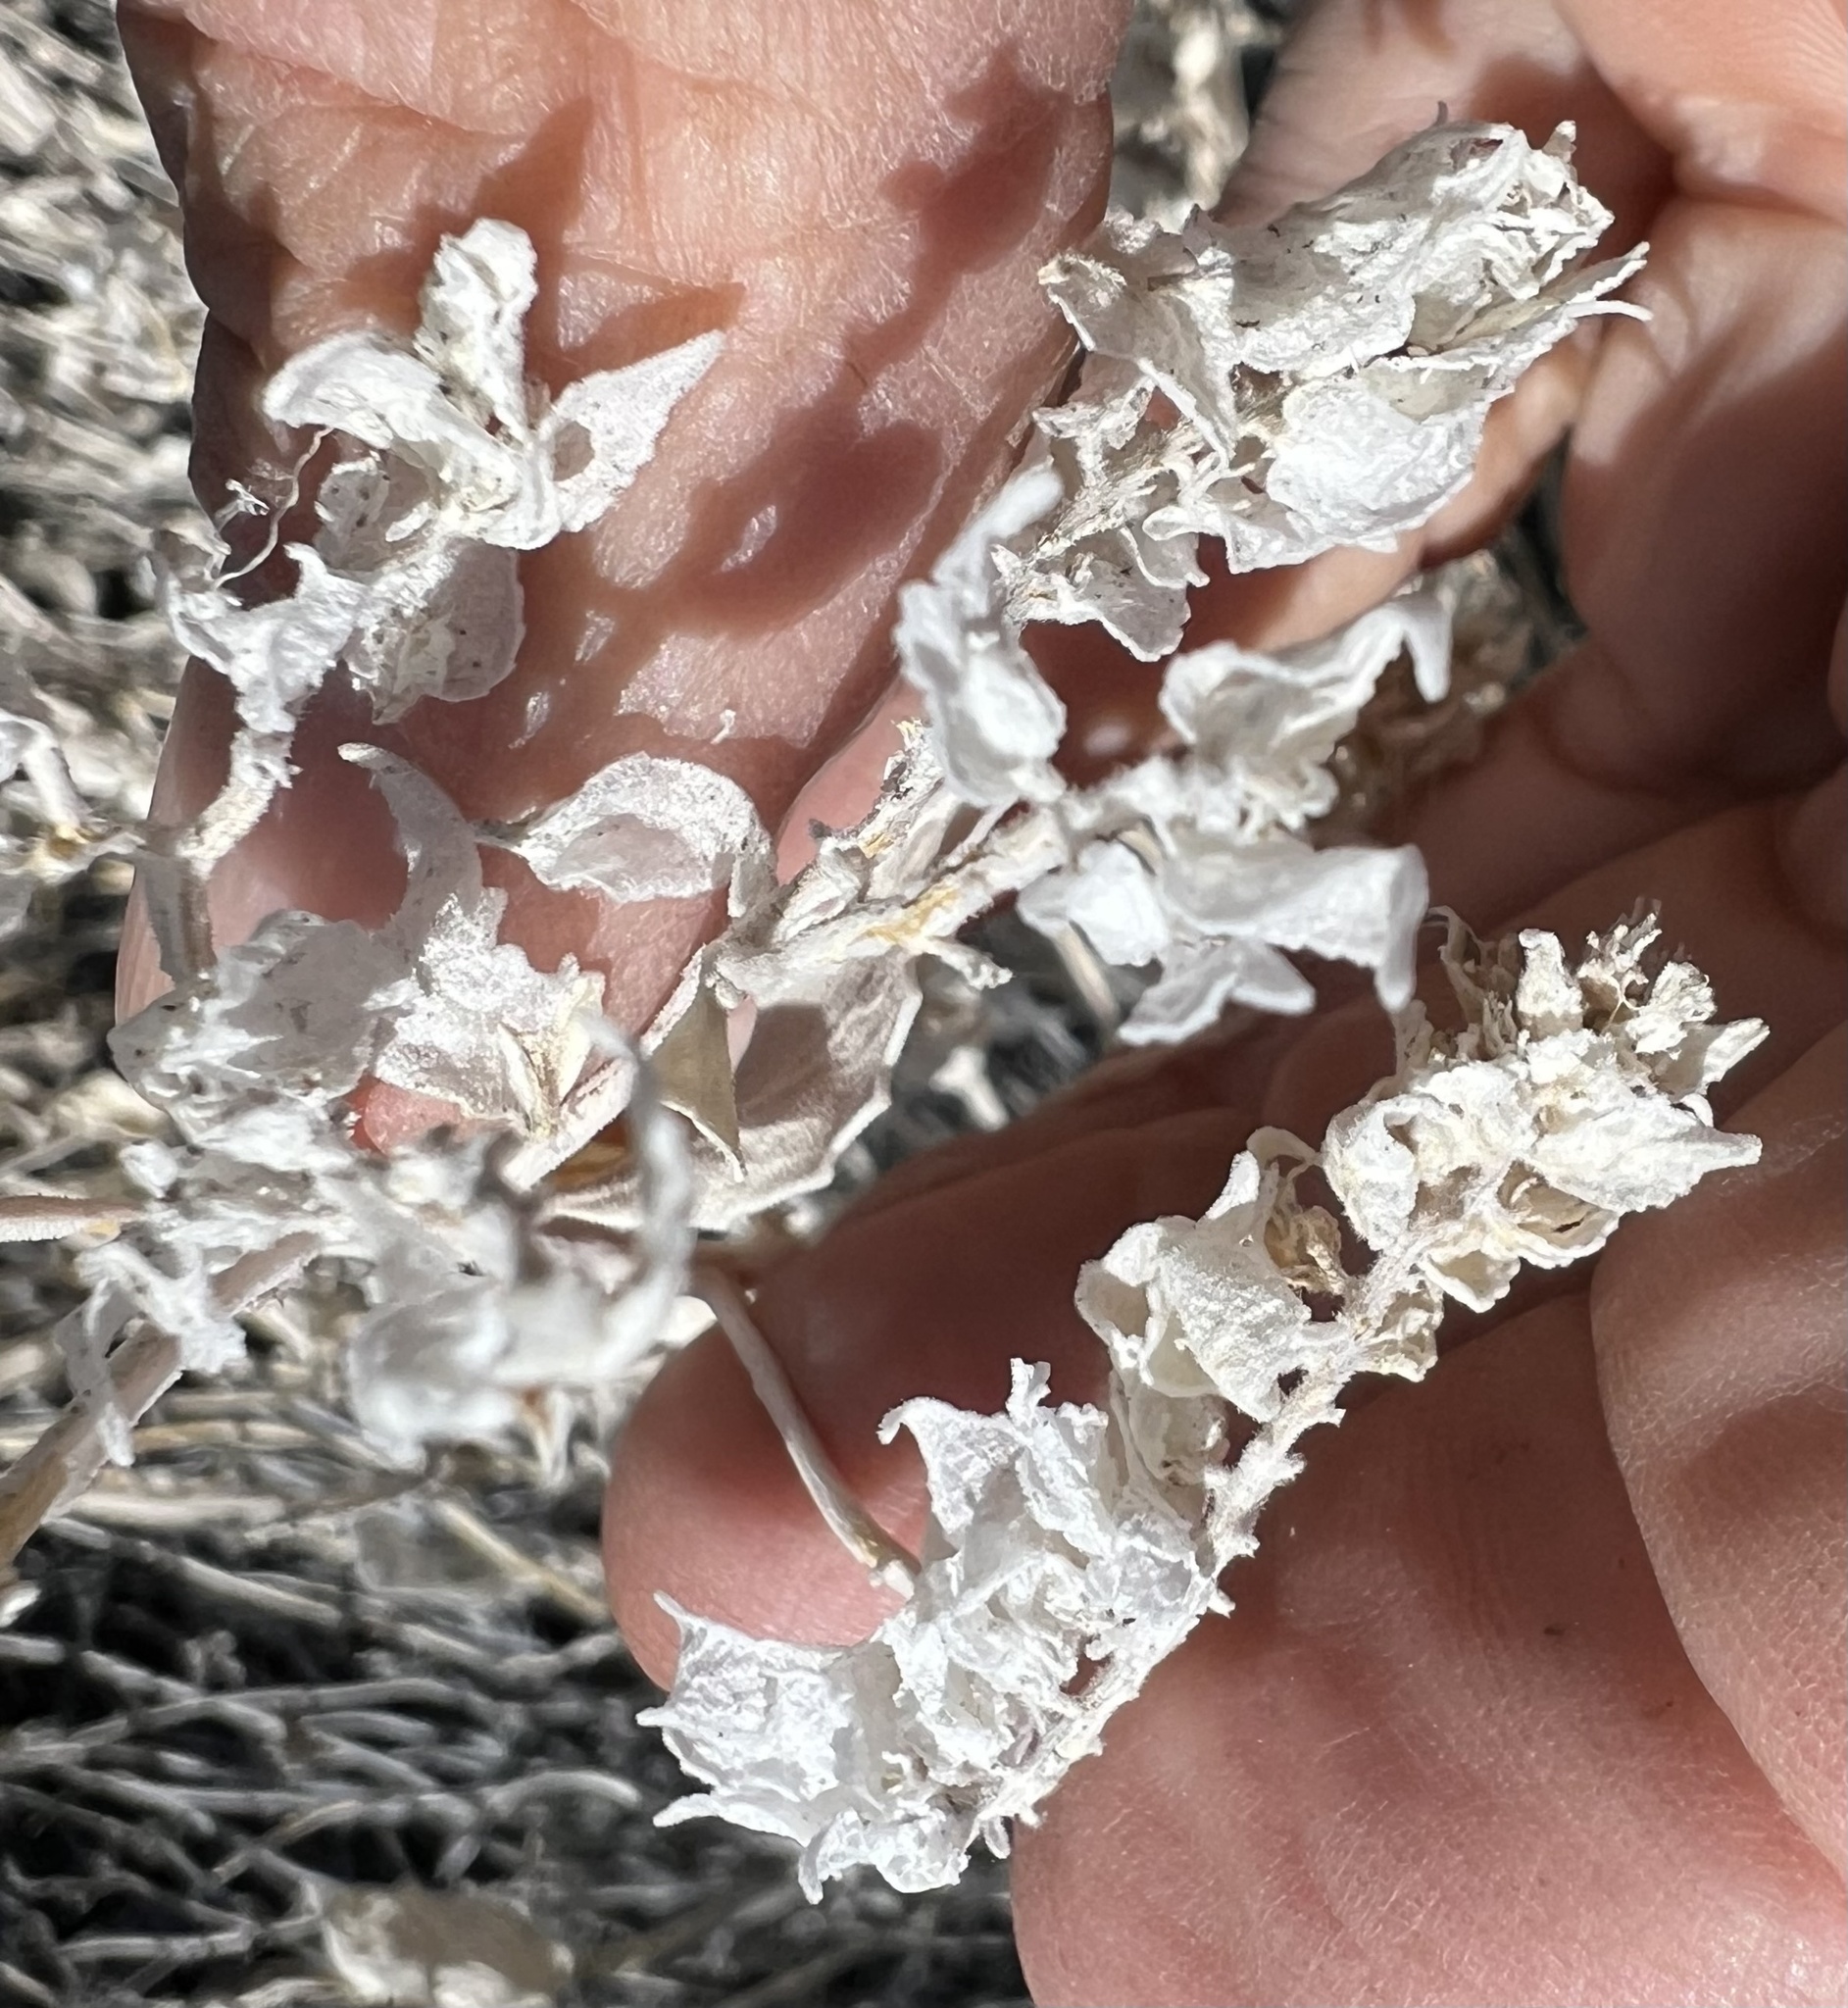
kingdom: Plantae
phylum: Tracheophyta
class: Magnoliopsida
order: Cornales
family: Loasaceae
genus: Petalonyx
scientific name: Petalonyx nitidus
